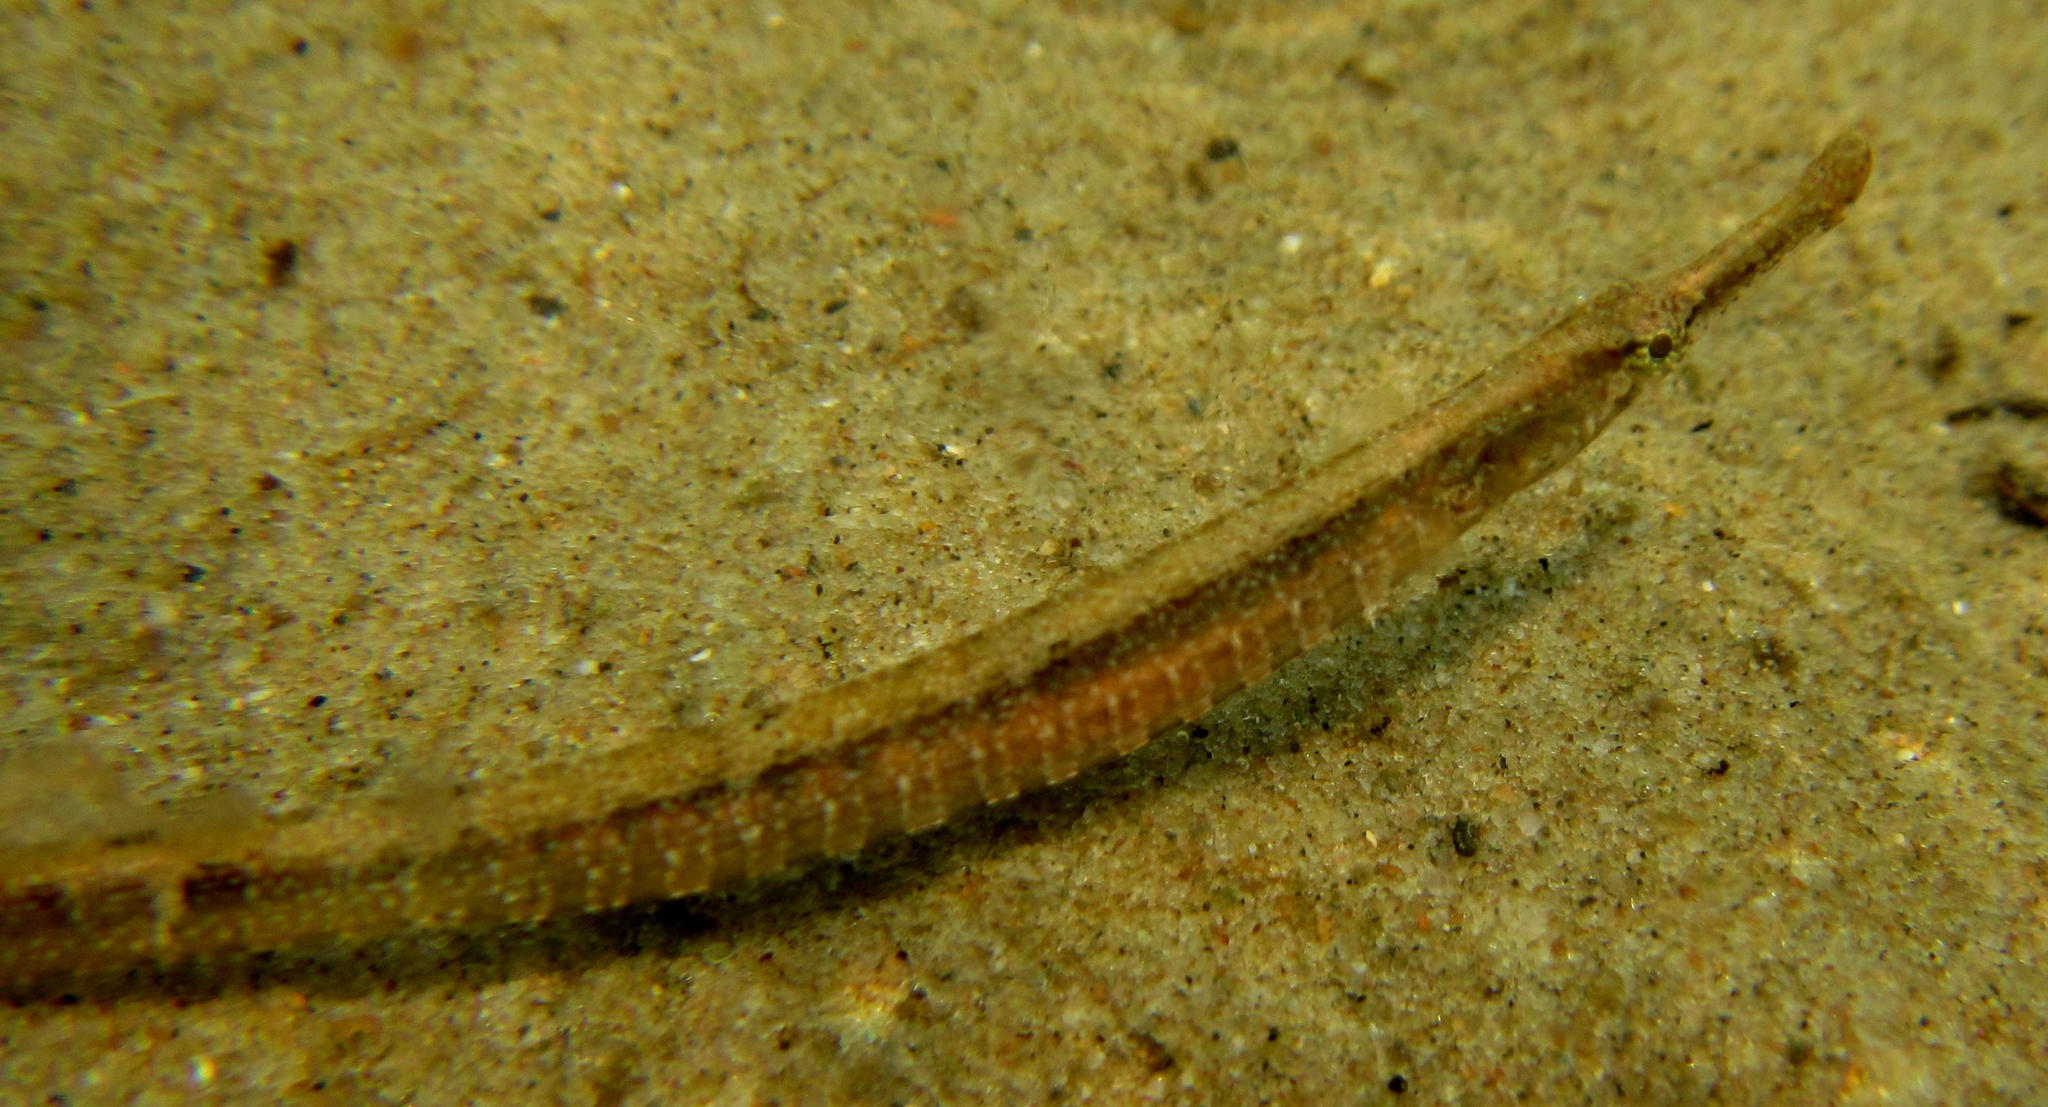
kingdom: Animalia
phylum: Chordata
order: Syngnathiformes
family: Syngnathidae
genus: Syngnathus
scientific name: Syngnathus acus
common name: Greater pipefish
